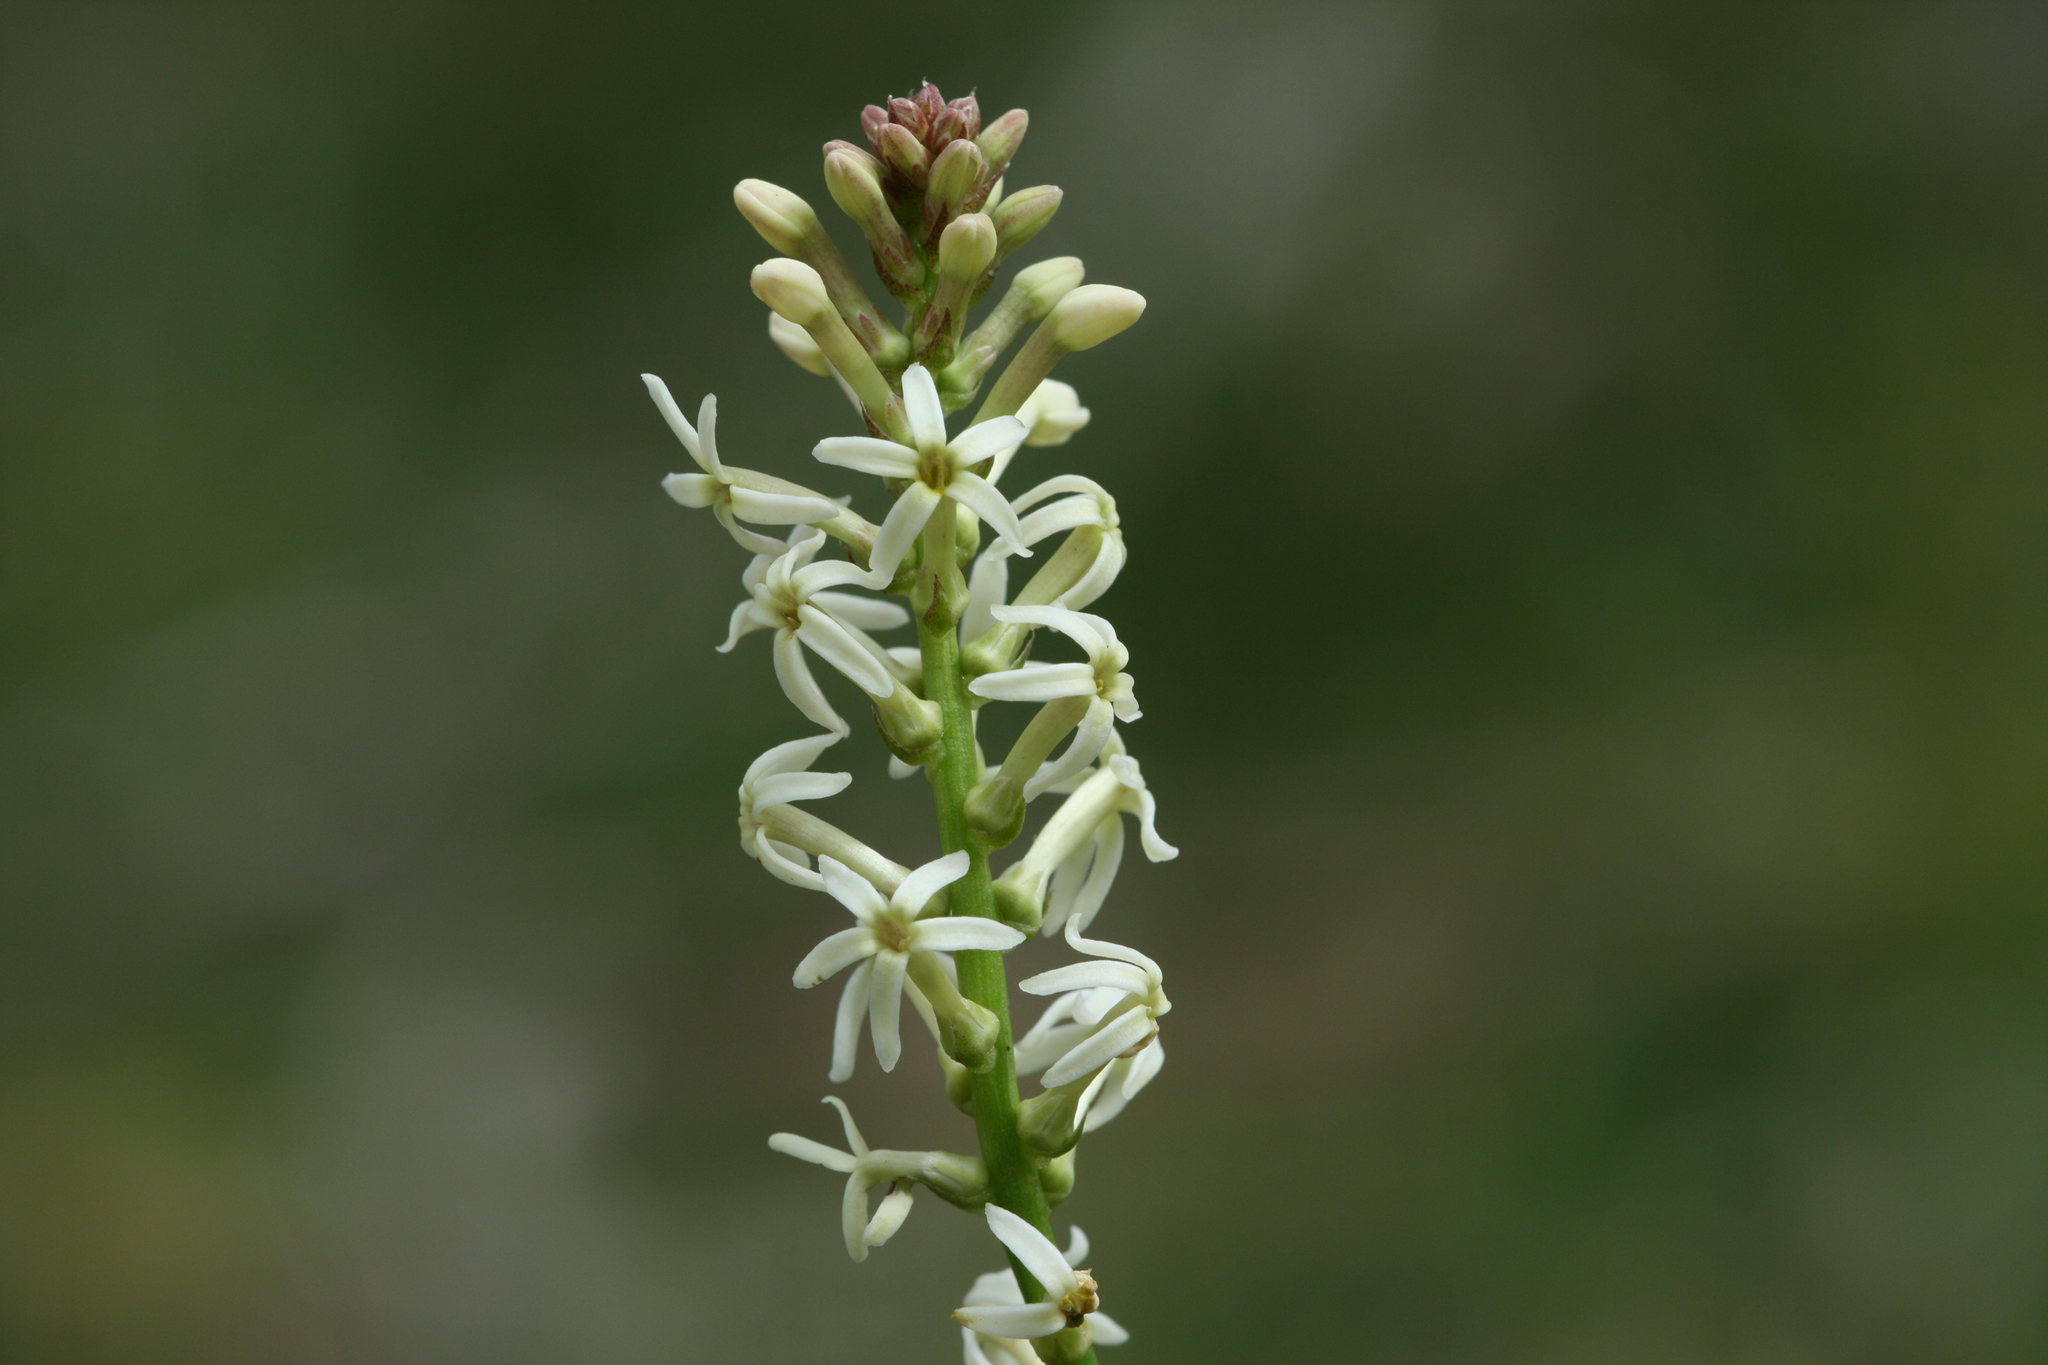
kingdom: Plantae
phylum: Tracheophyta
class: Magnoliopsida
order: Celastrales
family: Celastraceae
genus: Stackhousia
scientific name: Stackhousia monogyna
